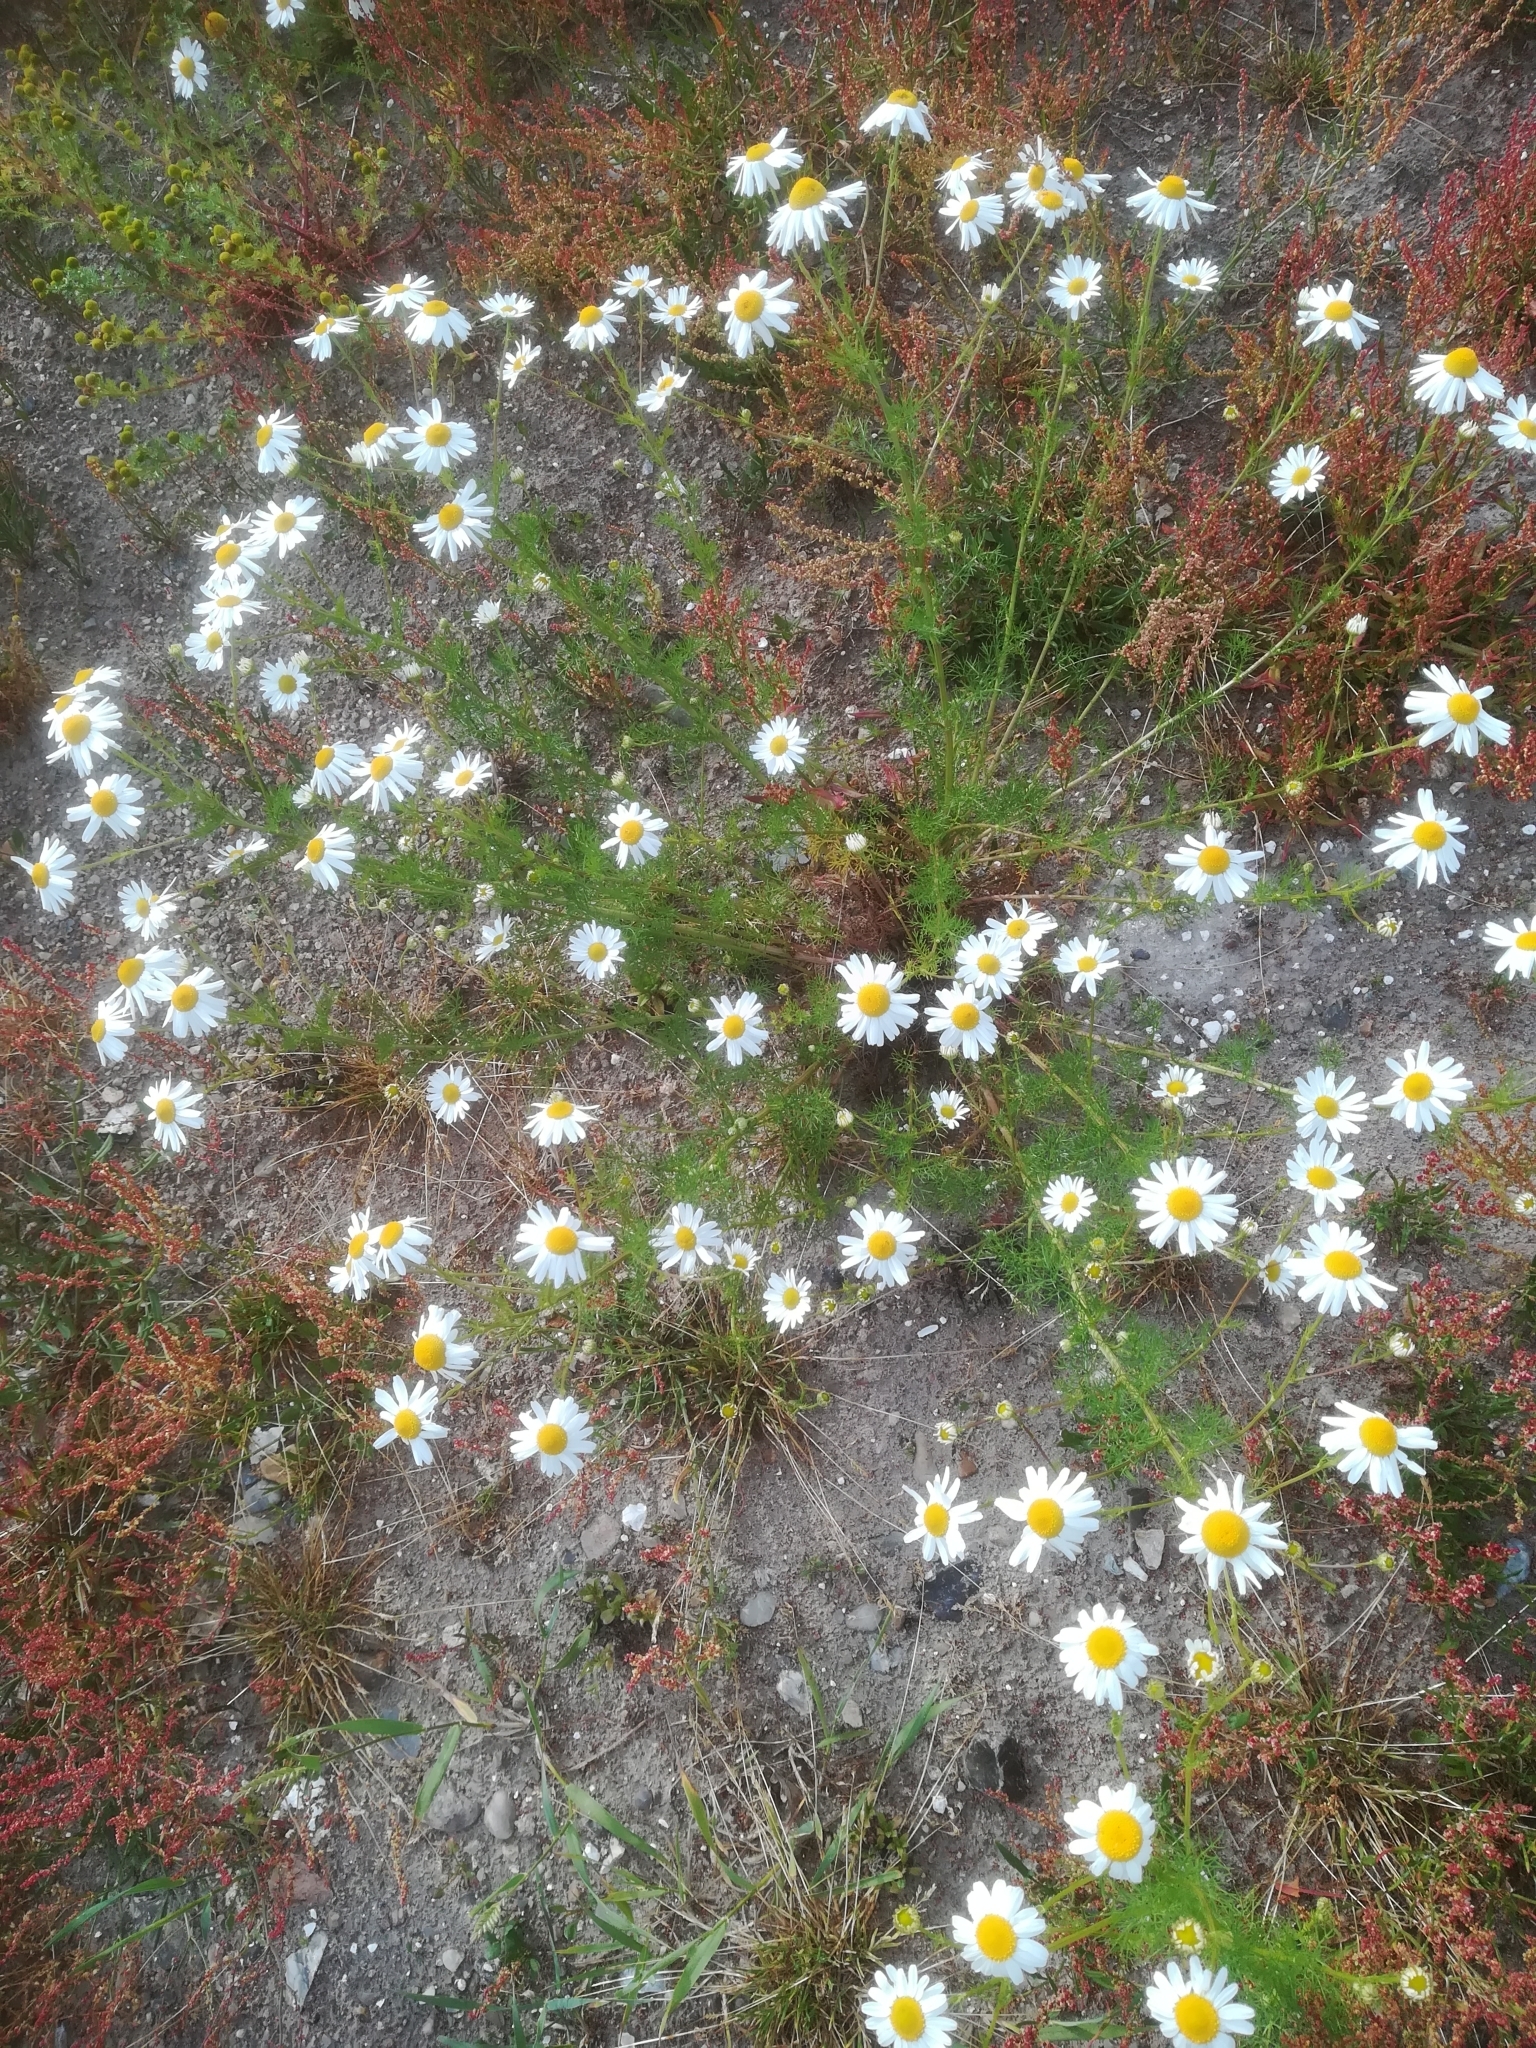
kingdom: Plantae
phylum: Tracheophyta
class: Magnoliopsida
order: Asterales
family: Asteraceae
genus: Tripleurospermum
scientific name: Tripleurospermum inodorum
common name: Scentless mayweed
